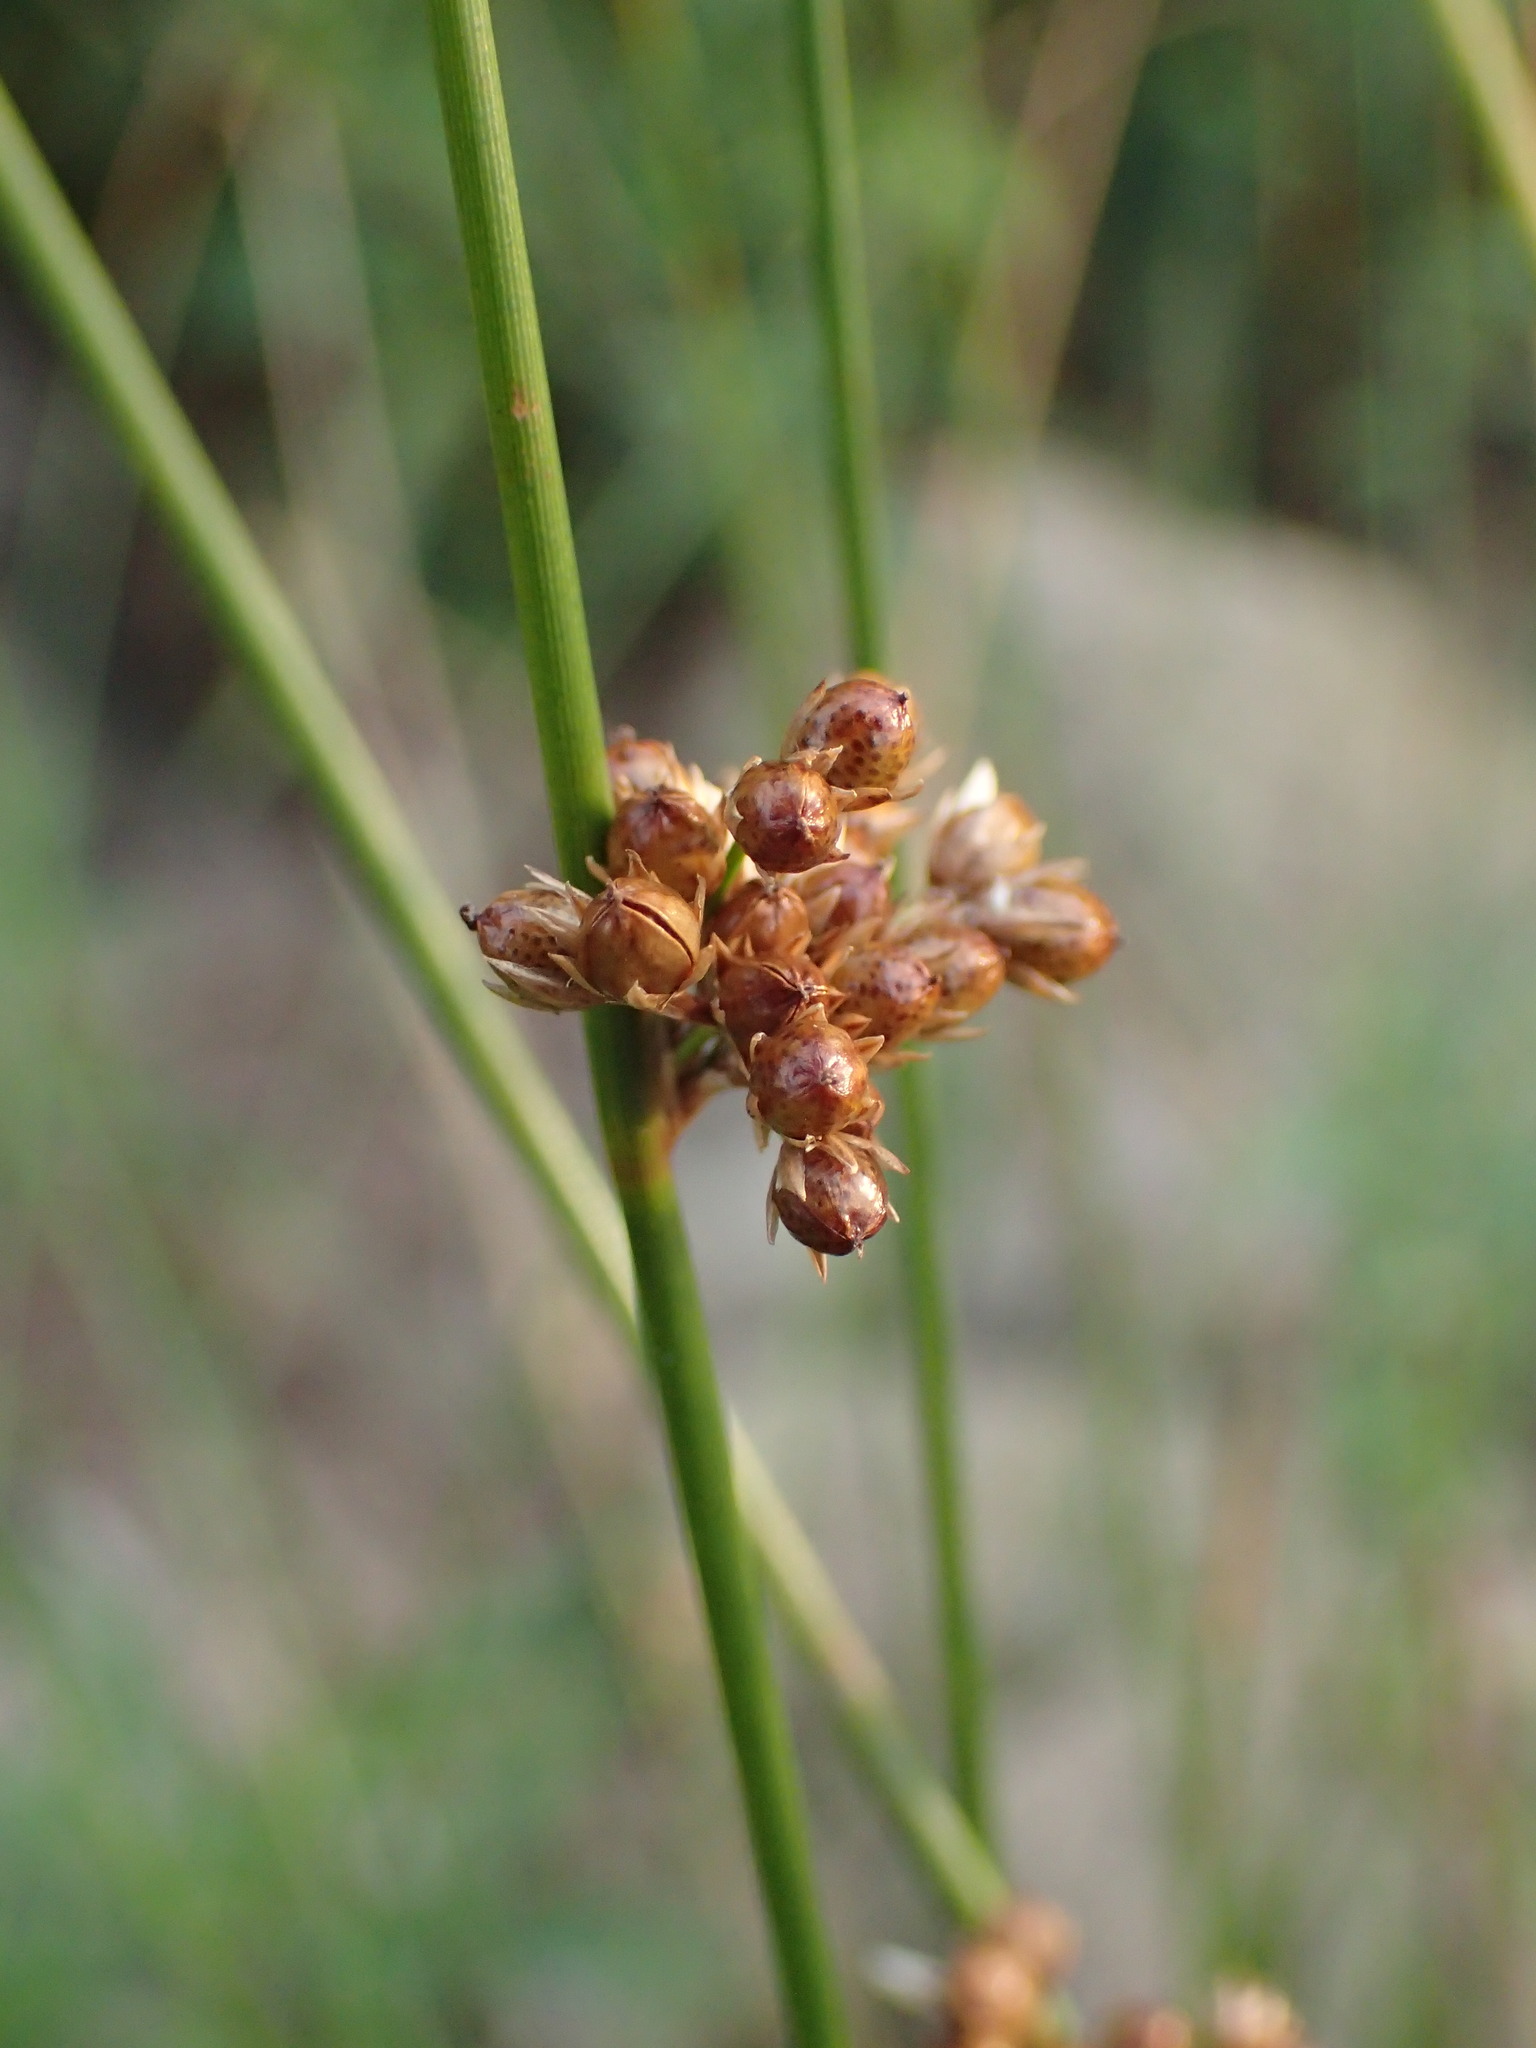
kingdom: Plantae
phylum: Tracheophyta
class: Liliopsida
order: Poales
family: Juncaceae
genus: Juncus
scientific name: Juncus filiformis
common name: Thread rush
